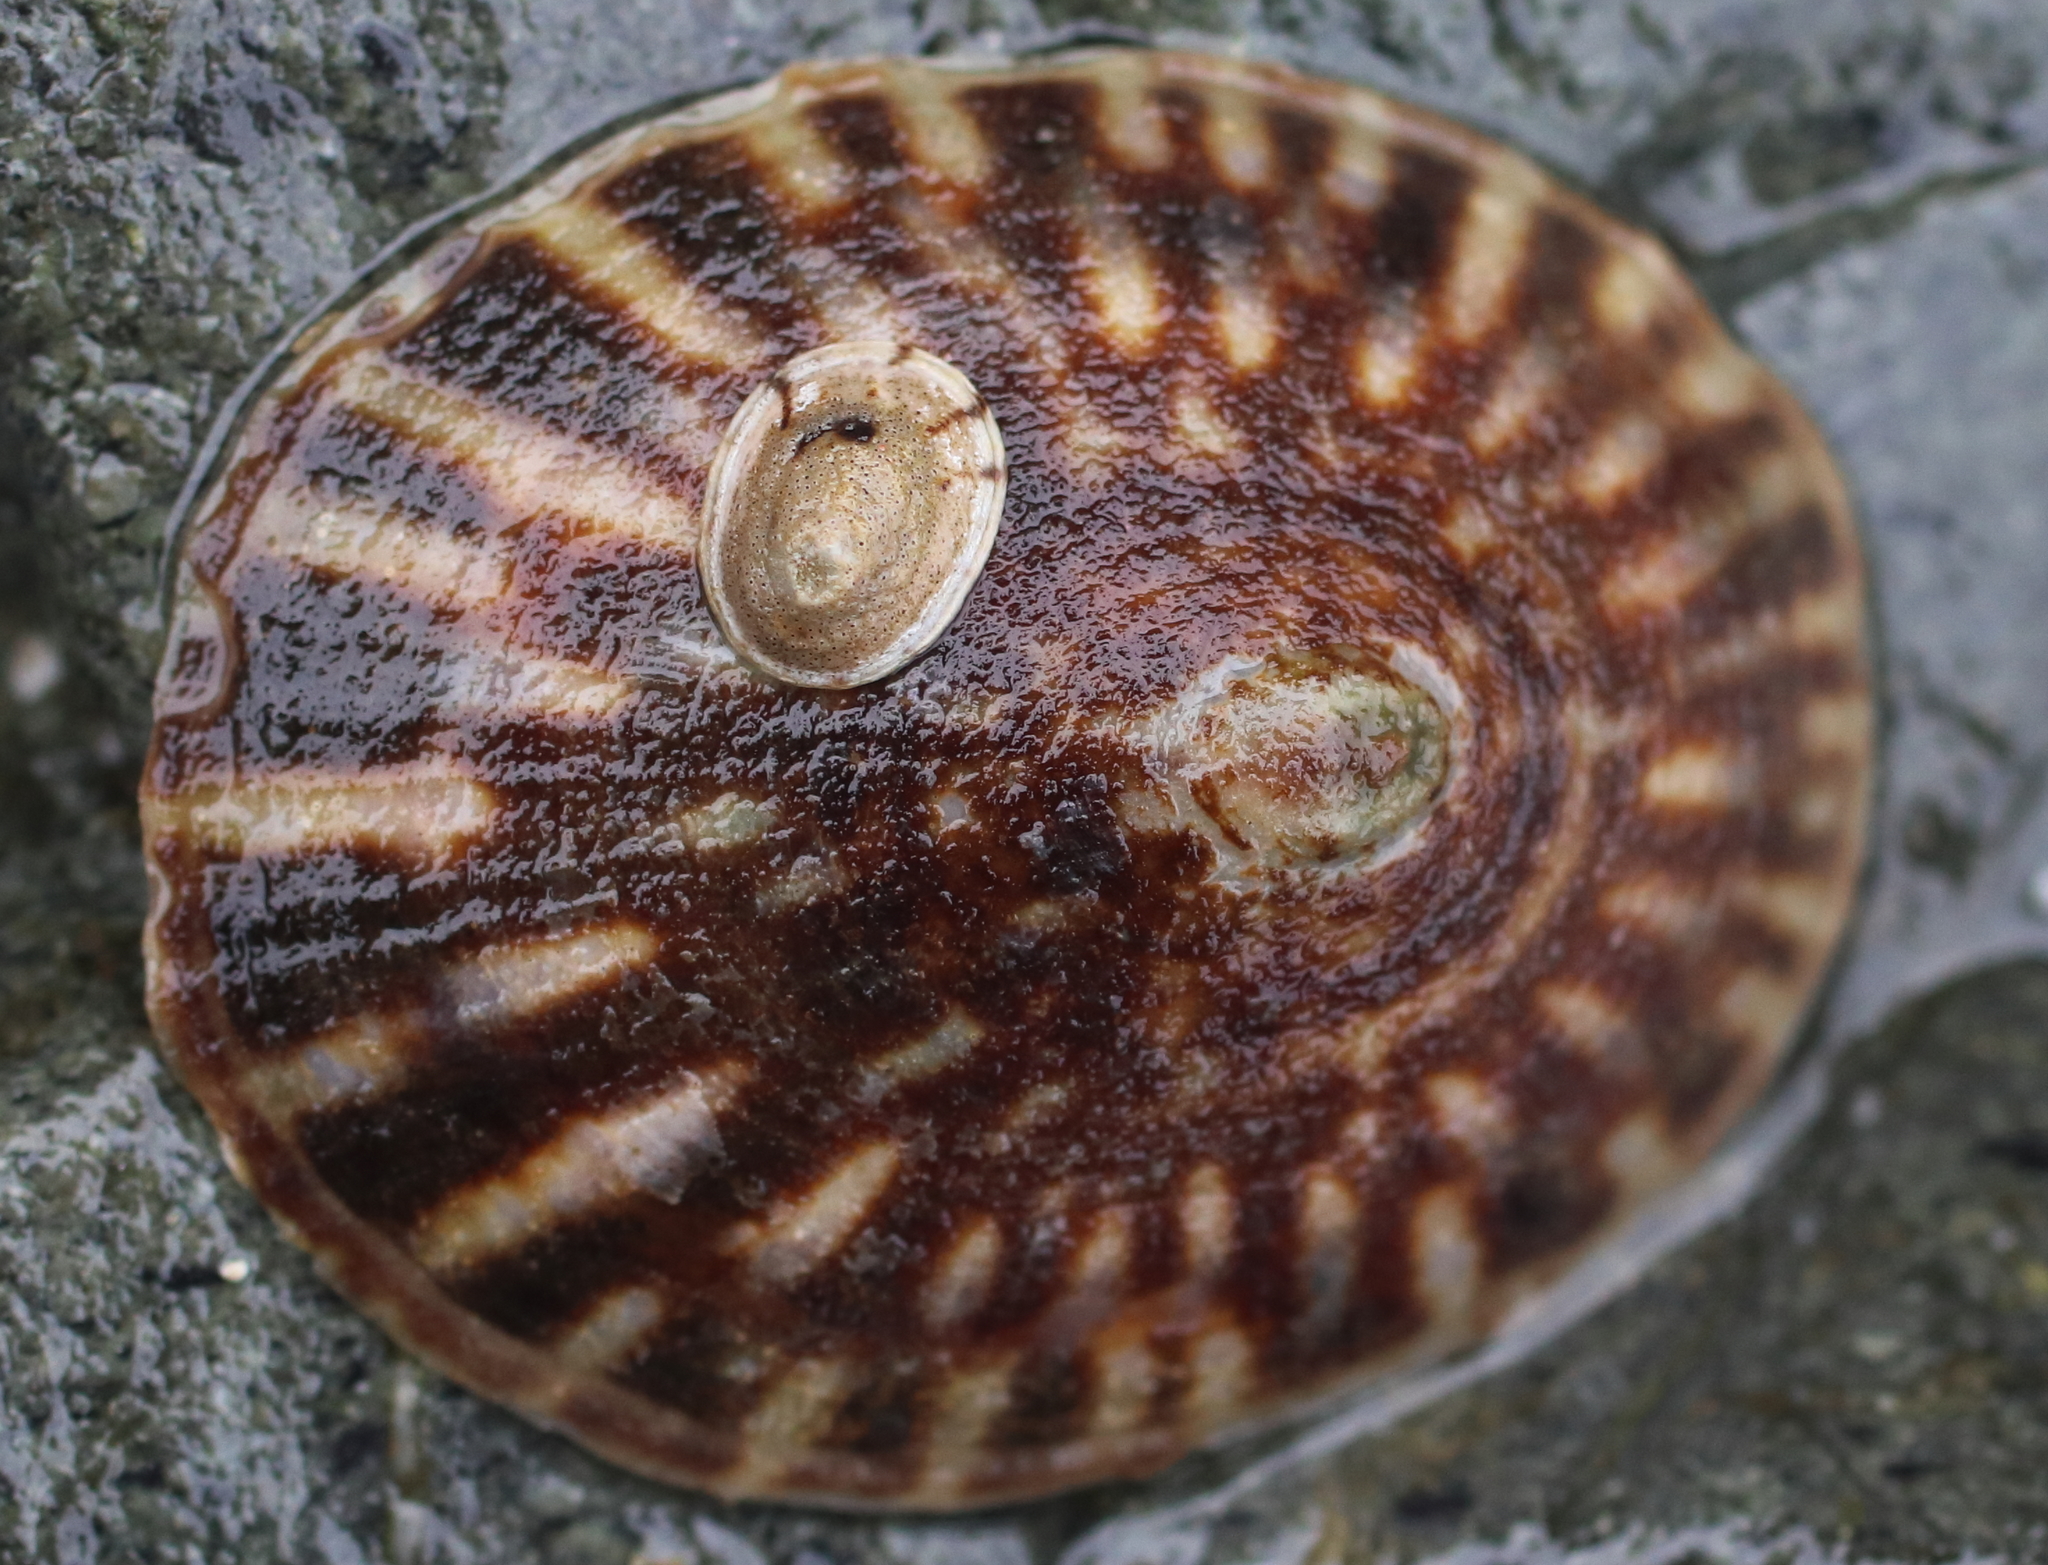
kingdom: Animalia
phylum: Mollusca
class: Gastropoda
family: Lottiidae
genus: Lottia
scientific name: Lottia scutum
